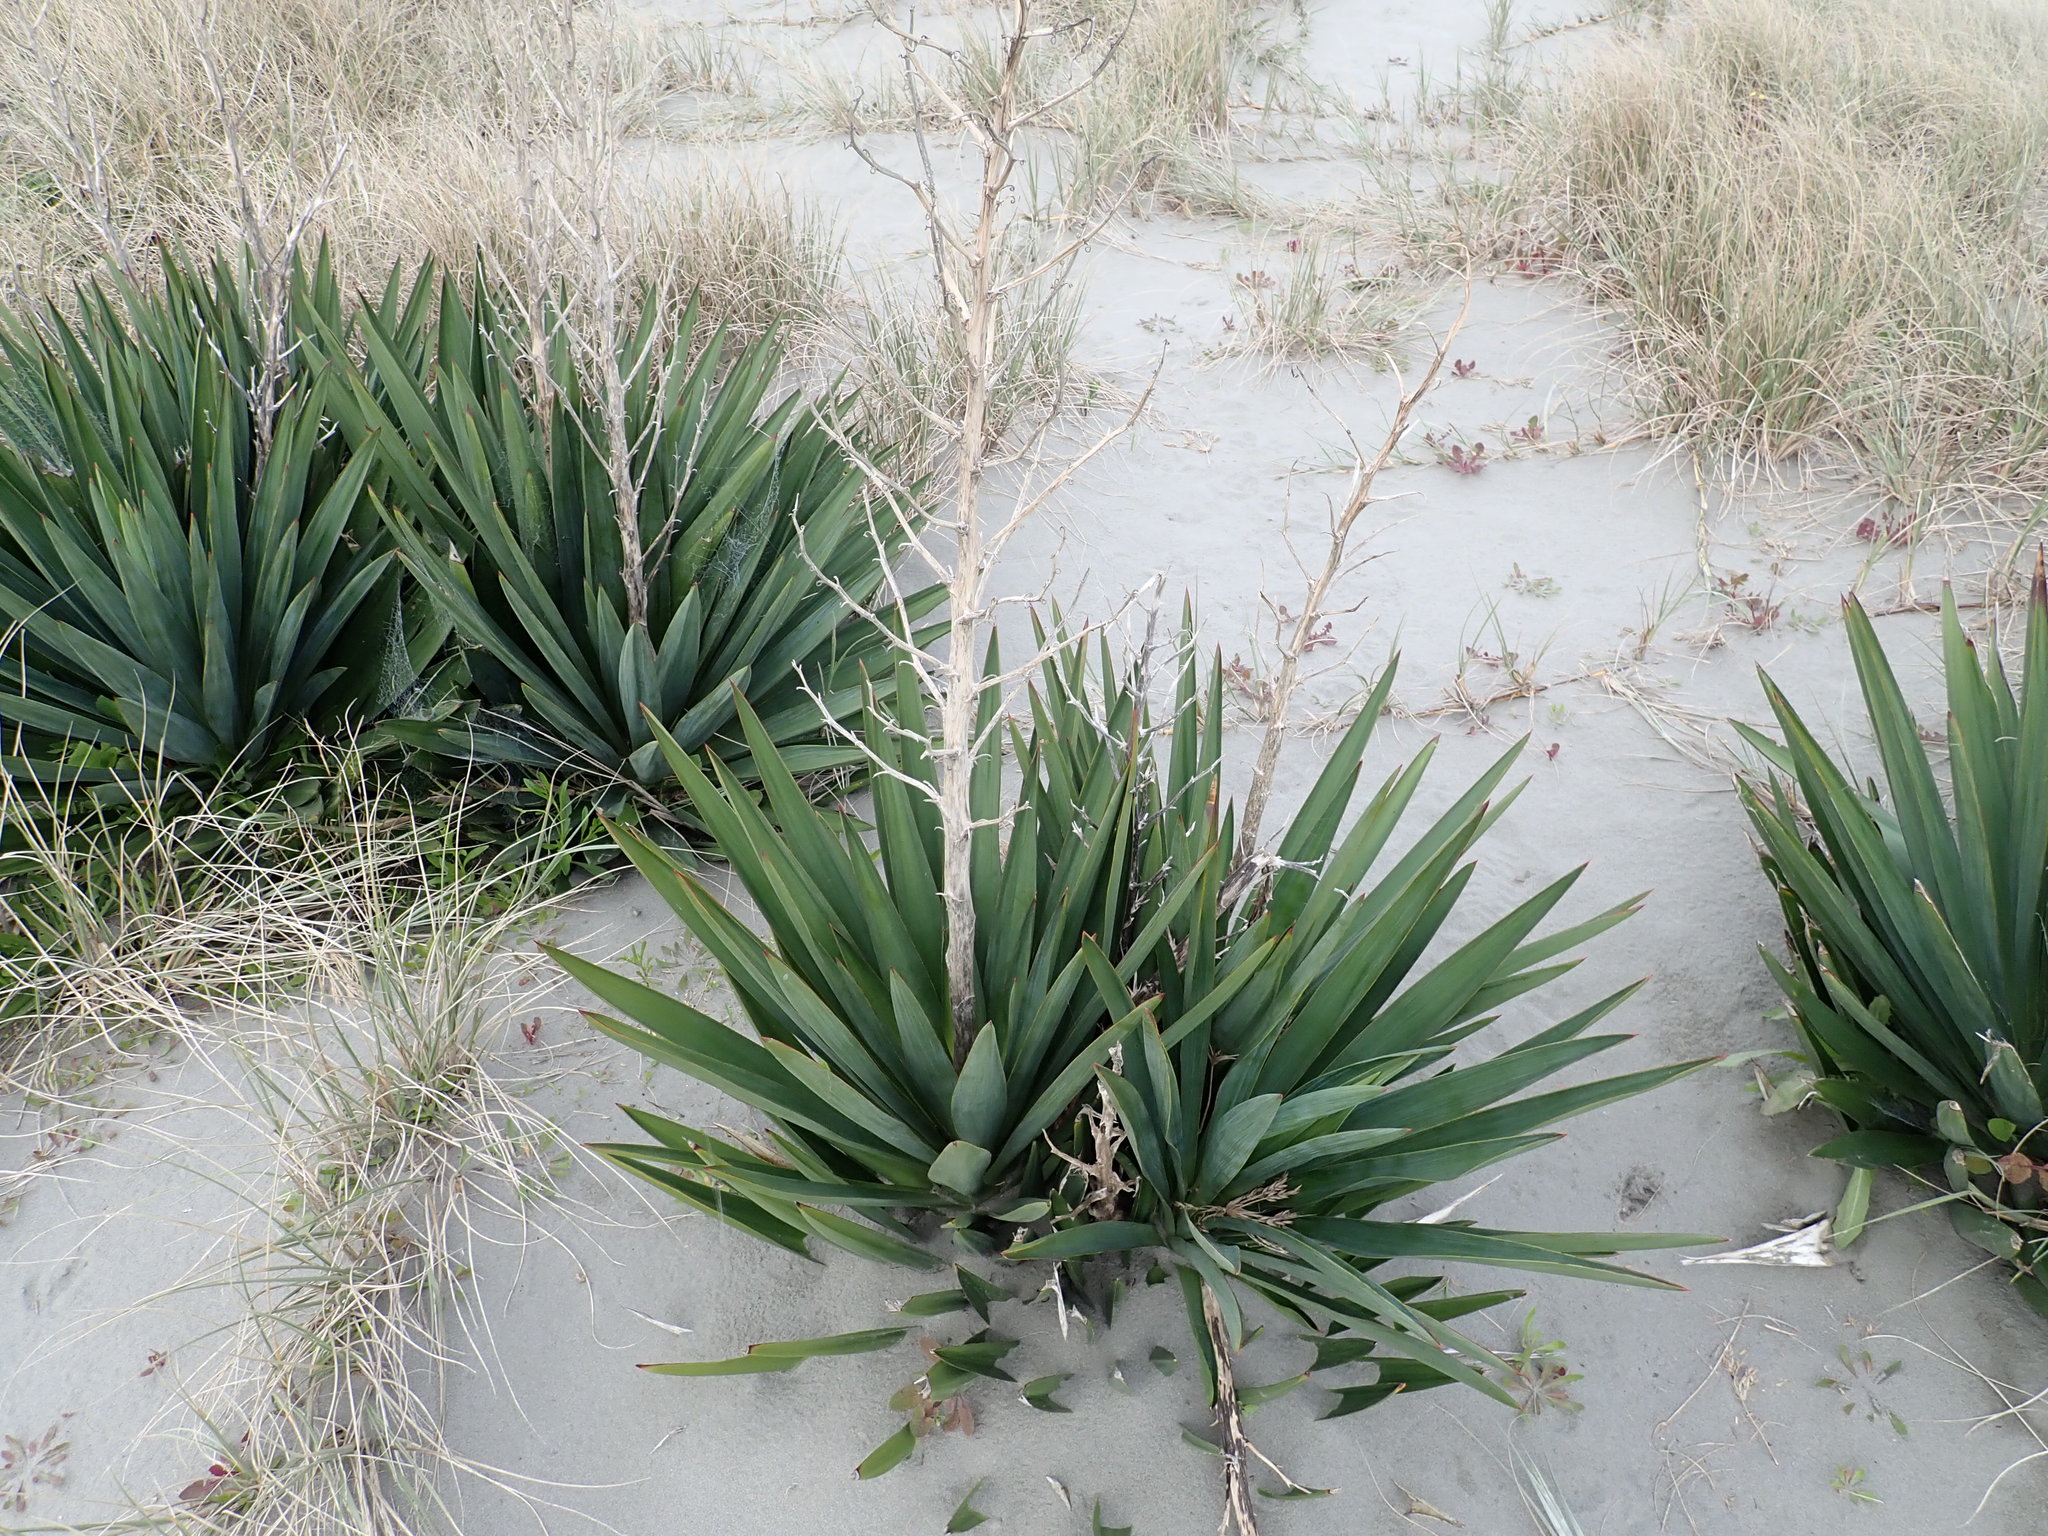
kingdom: Plantae
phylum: Tracheophyta
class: Liliopsida
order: Asparagales
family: Asparagaceae
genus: Yucca
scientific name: Yucca gloriosa
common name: Spanish-dagger
